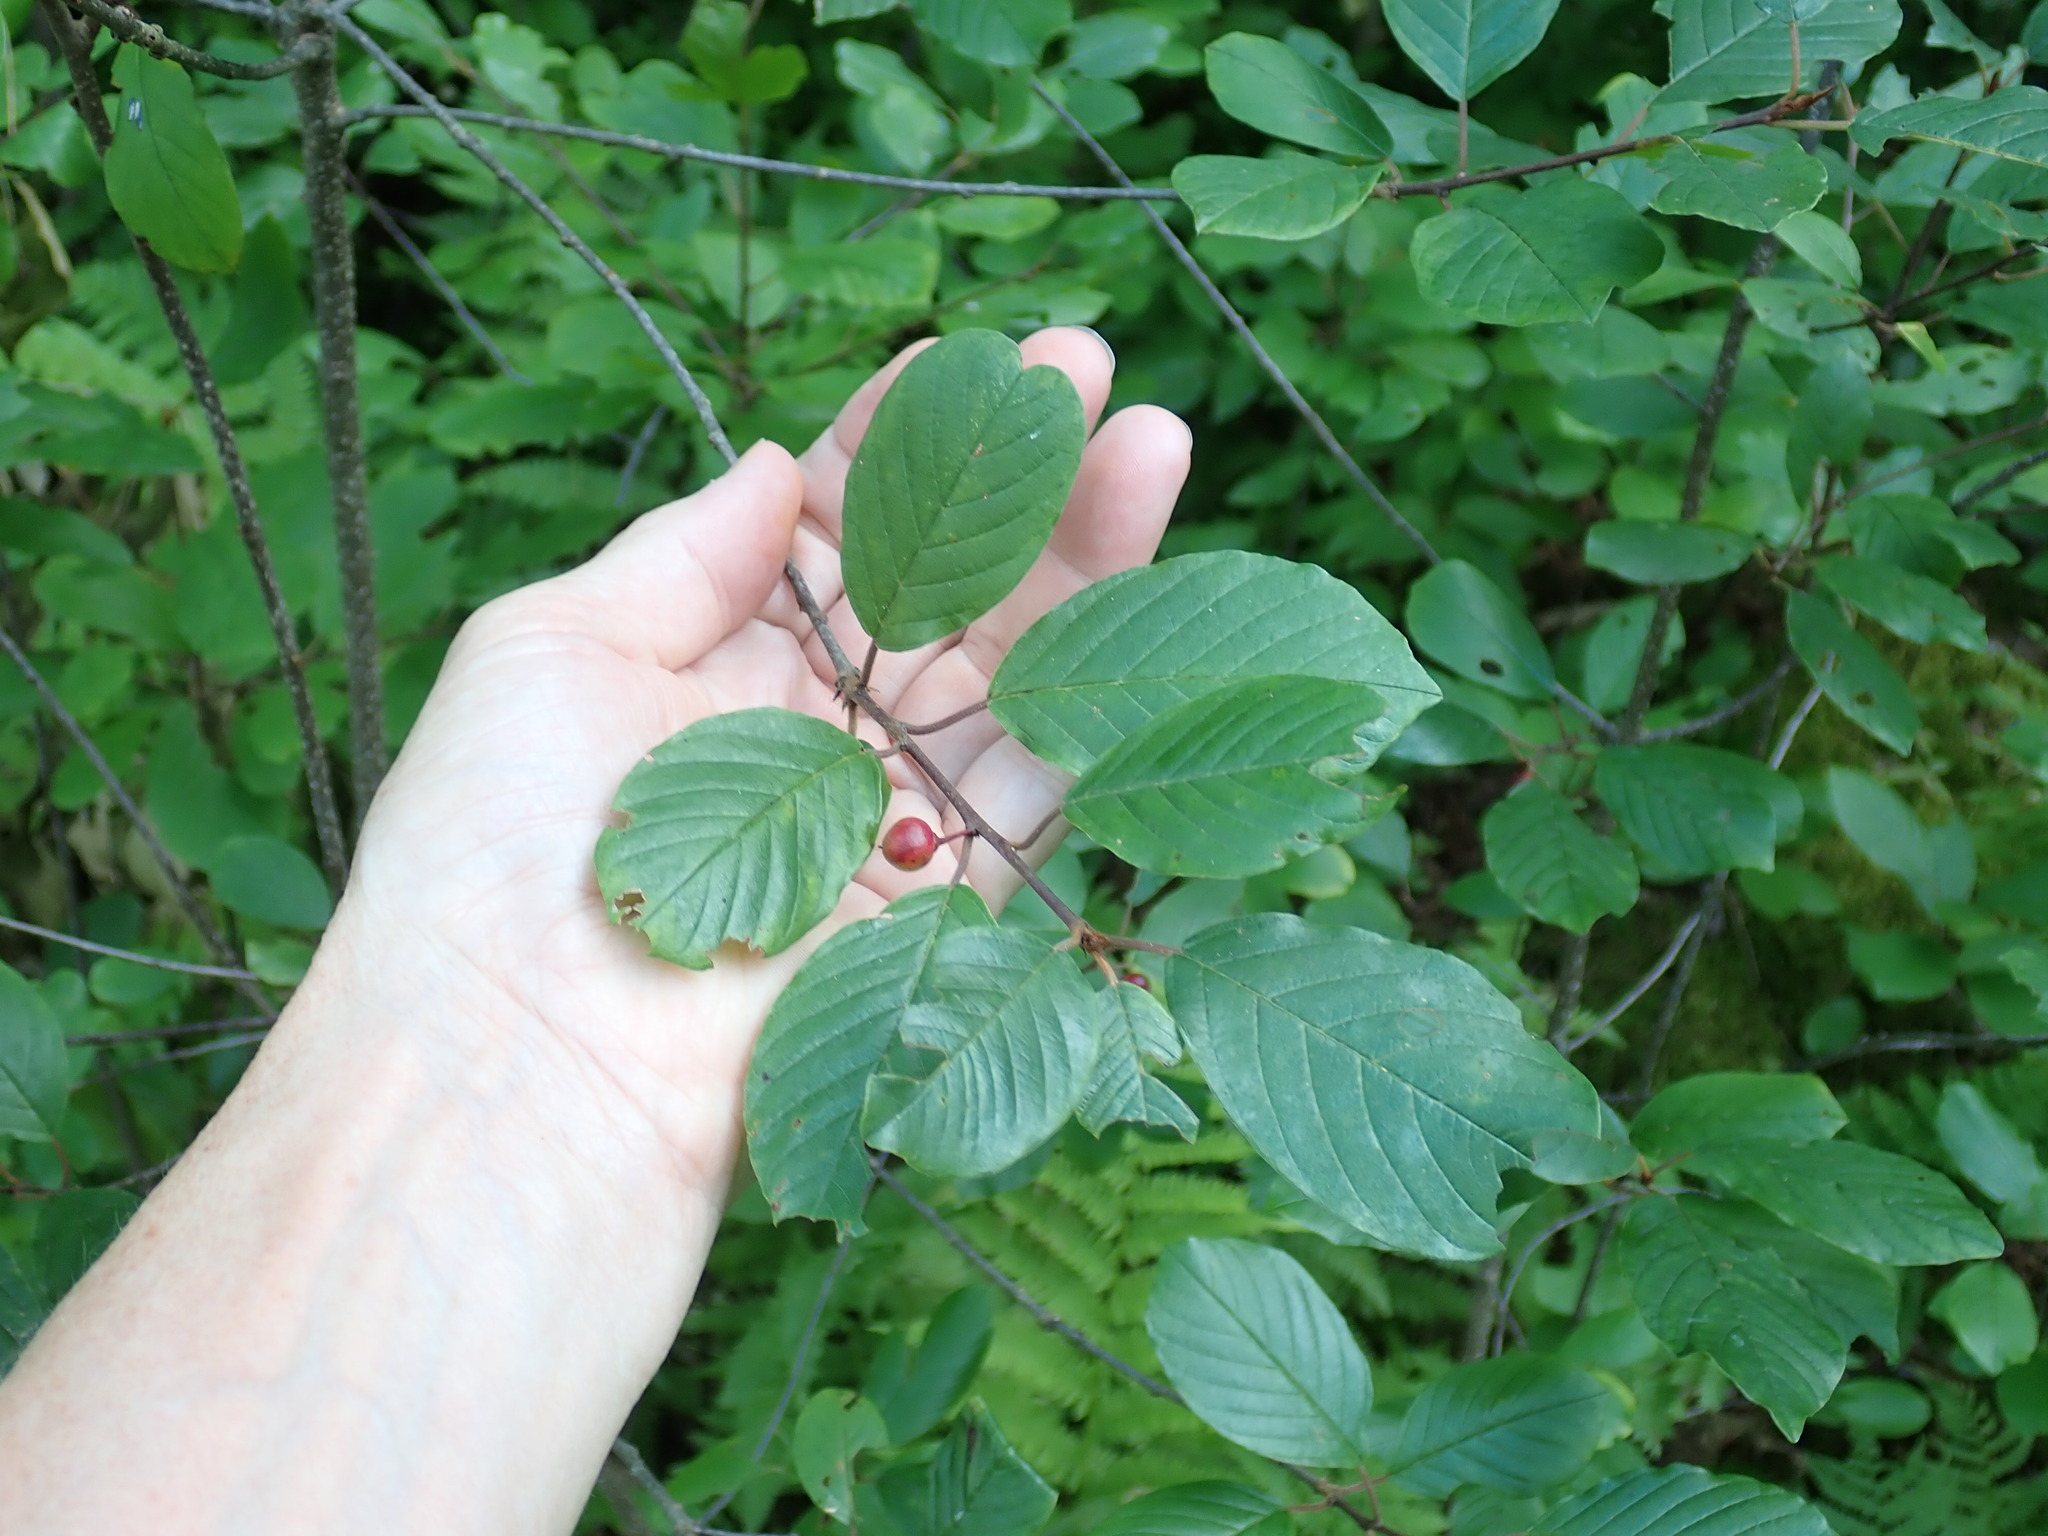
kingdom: Plantae
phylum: Tracheophyta
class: Magnoliopsida
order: Rosales
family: Rhamnaceae
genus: Frangula
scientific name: Frangula alnus
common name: Alder buckthorn
